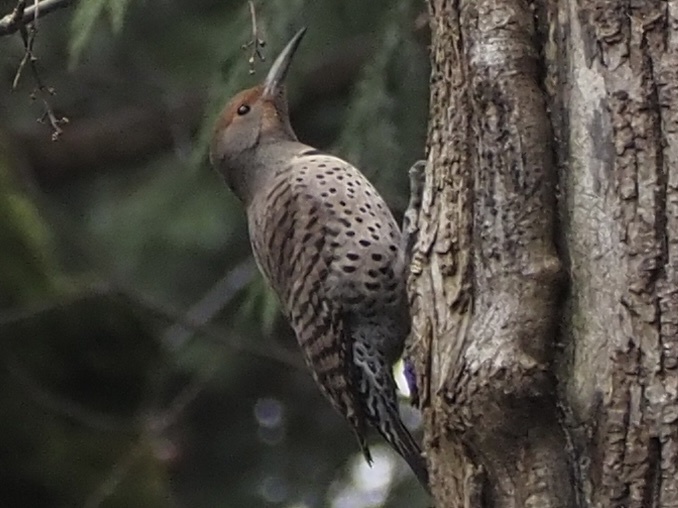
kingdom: Animalia
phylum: Chordata
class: Aves
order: Piciformes
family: Picidae
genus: Colaptes
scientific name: Colaptes auratus
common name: Northern flicker
